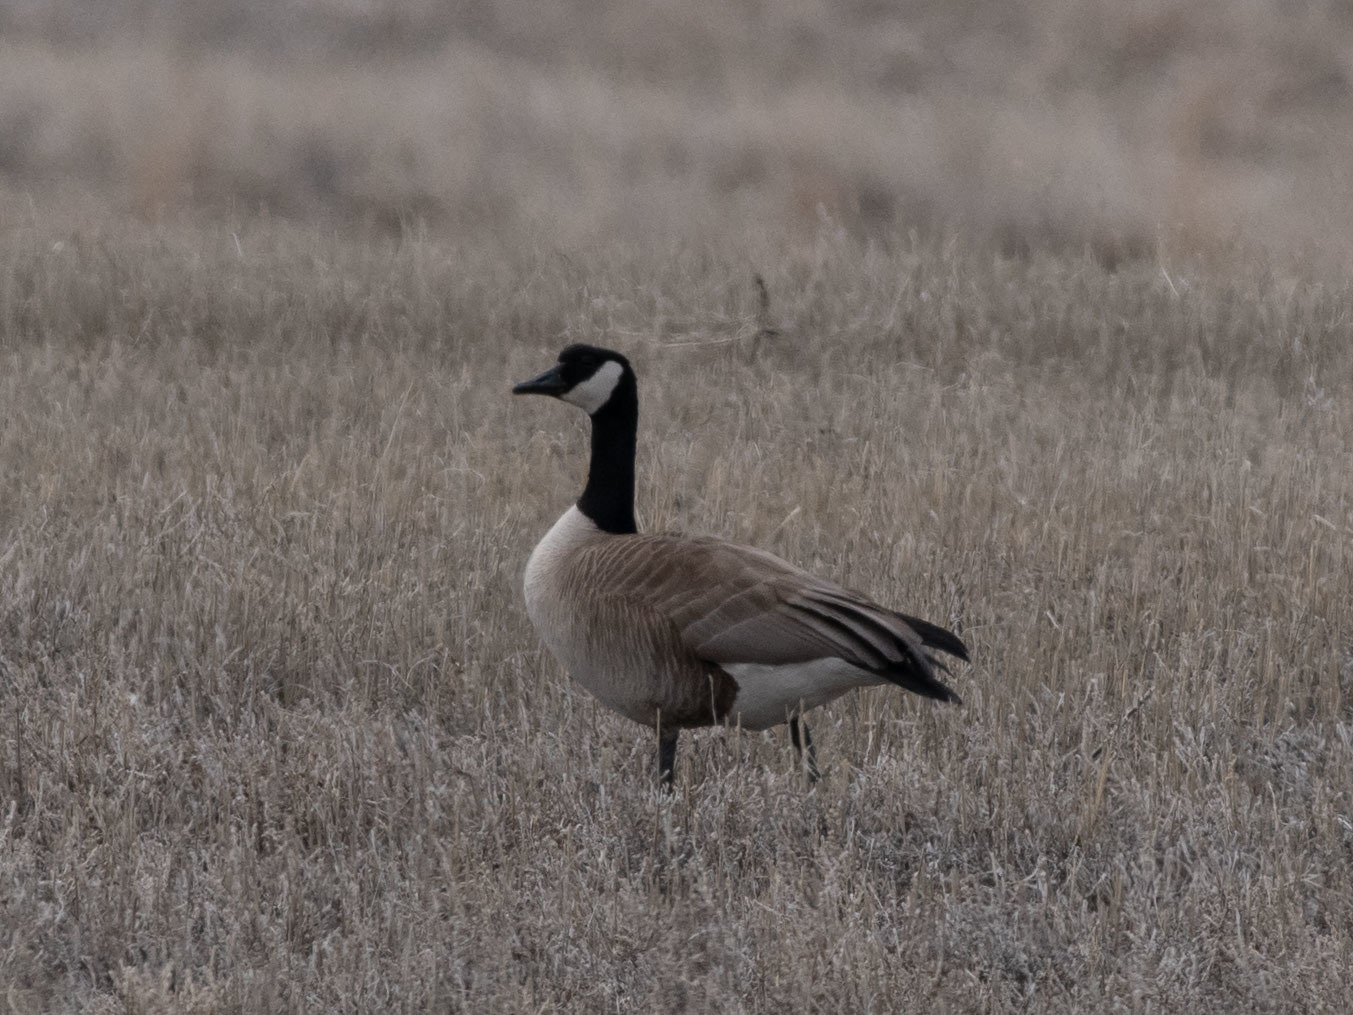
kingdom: Animalia
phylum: Chordata
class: Aves
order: Anseriformes
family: Anatidae
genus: Branta
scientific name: Branta canadensis
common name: Canada goose
